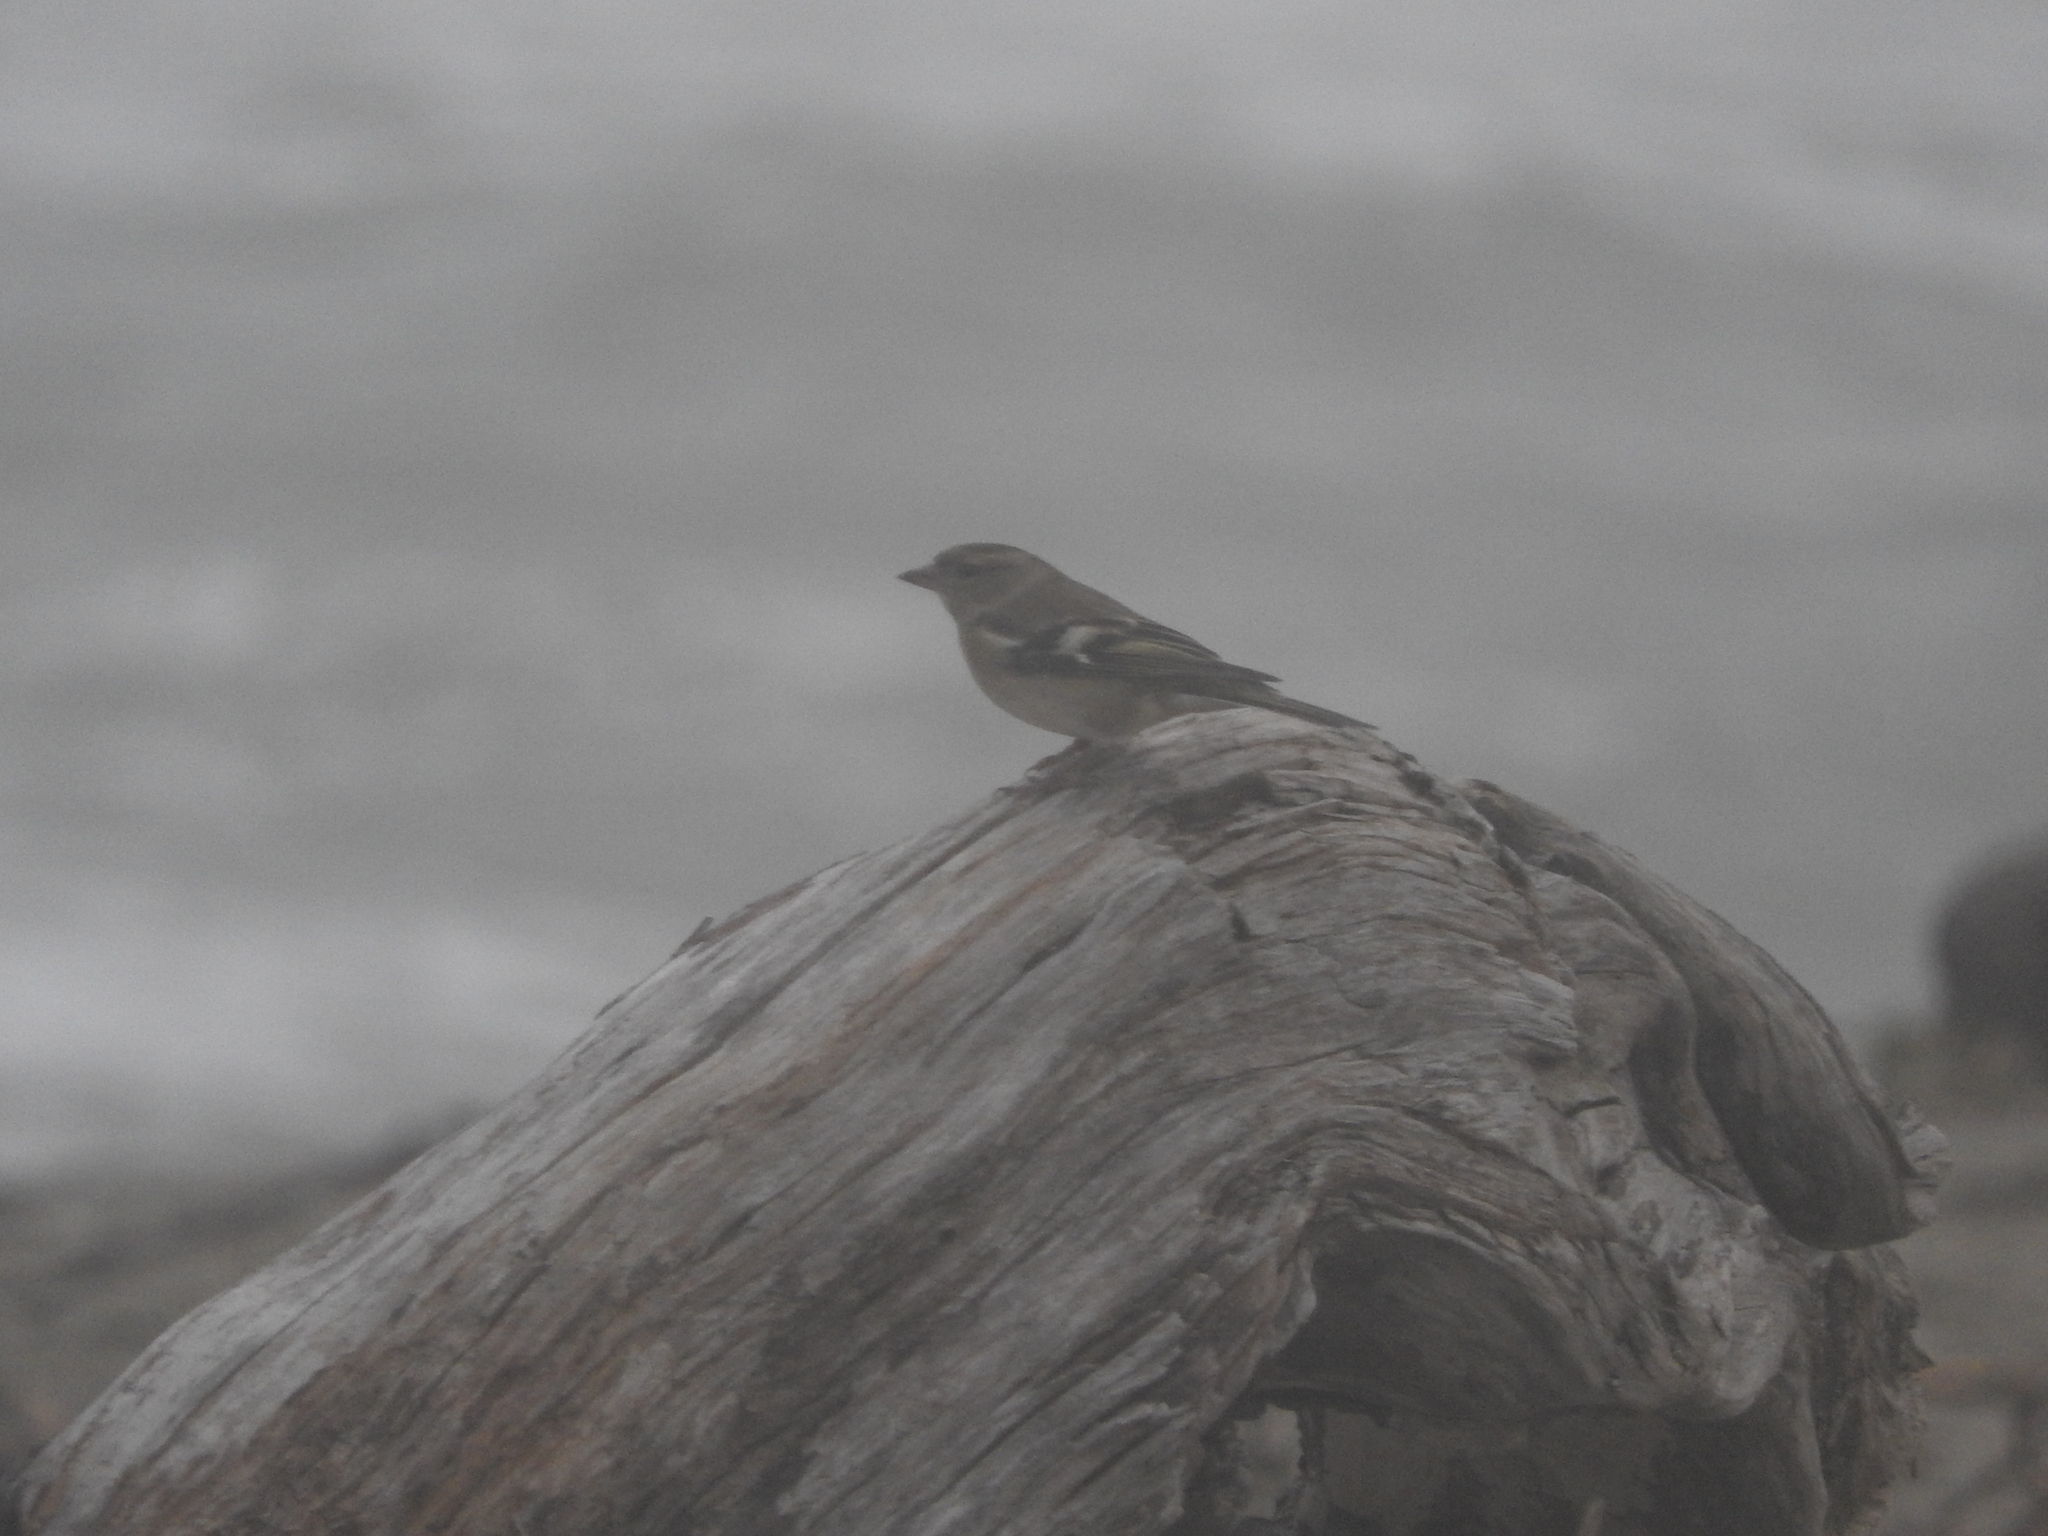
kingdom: Animalia
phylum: Chordata
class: Aves
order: Passeriformes
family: Fringillidae
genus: Fringilla
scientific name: Fringilla coelebs
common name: Common chaffinch
